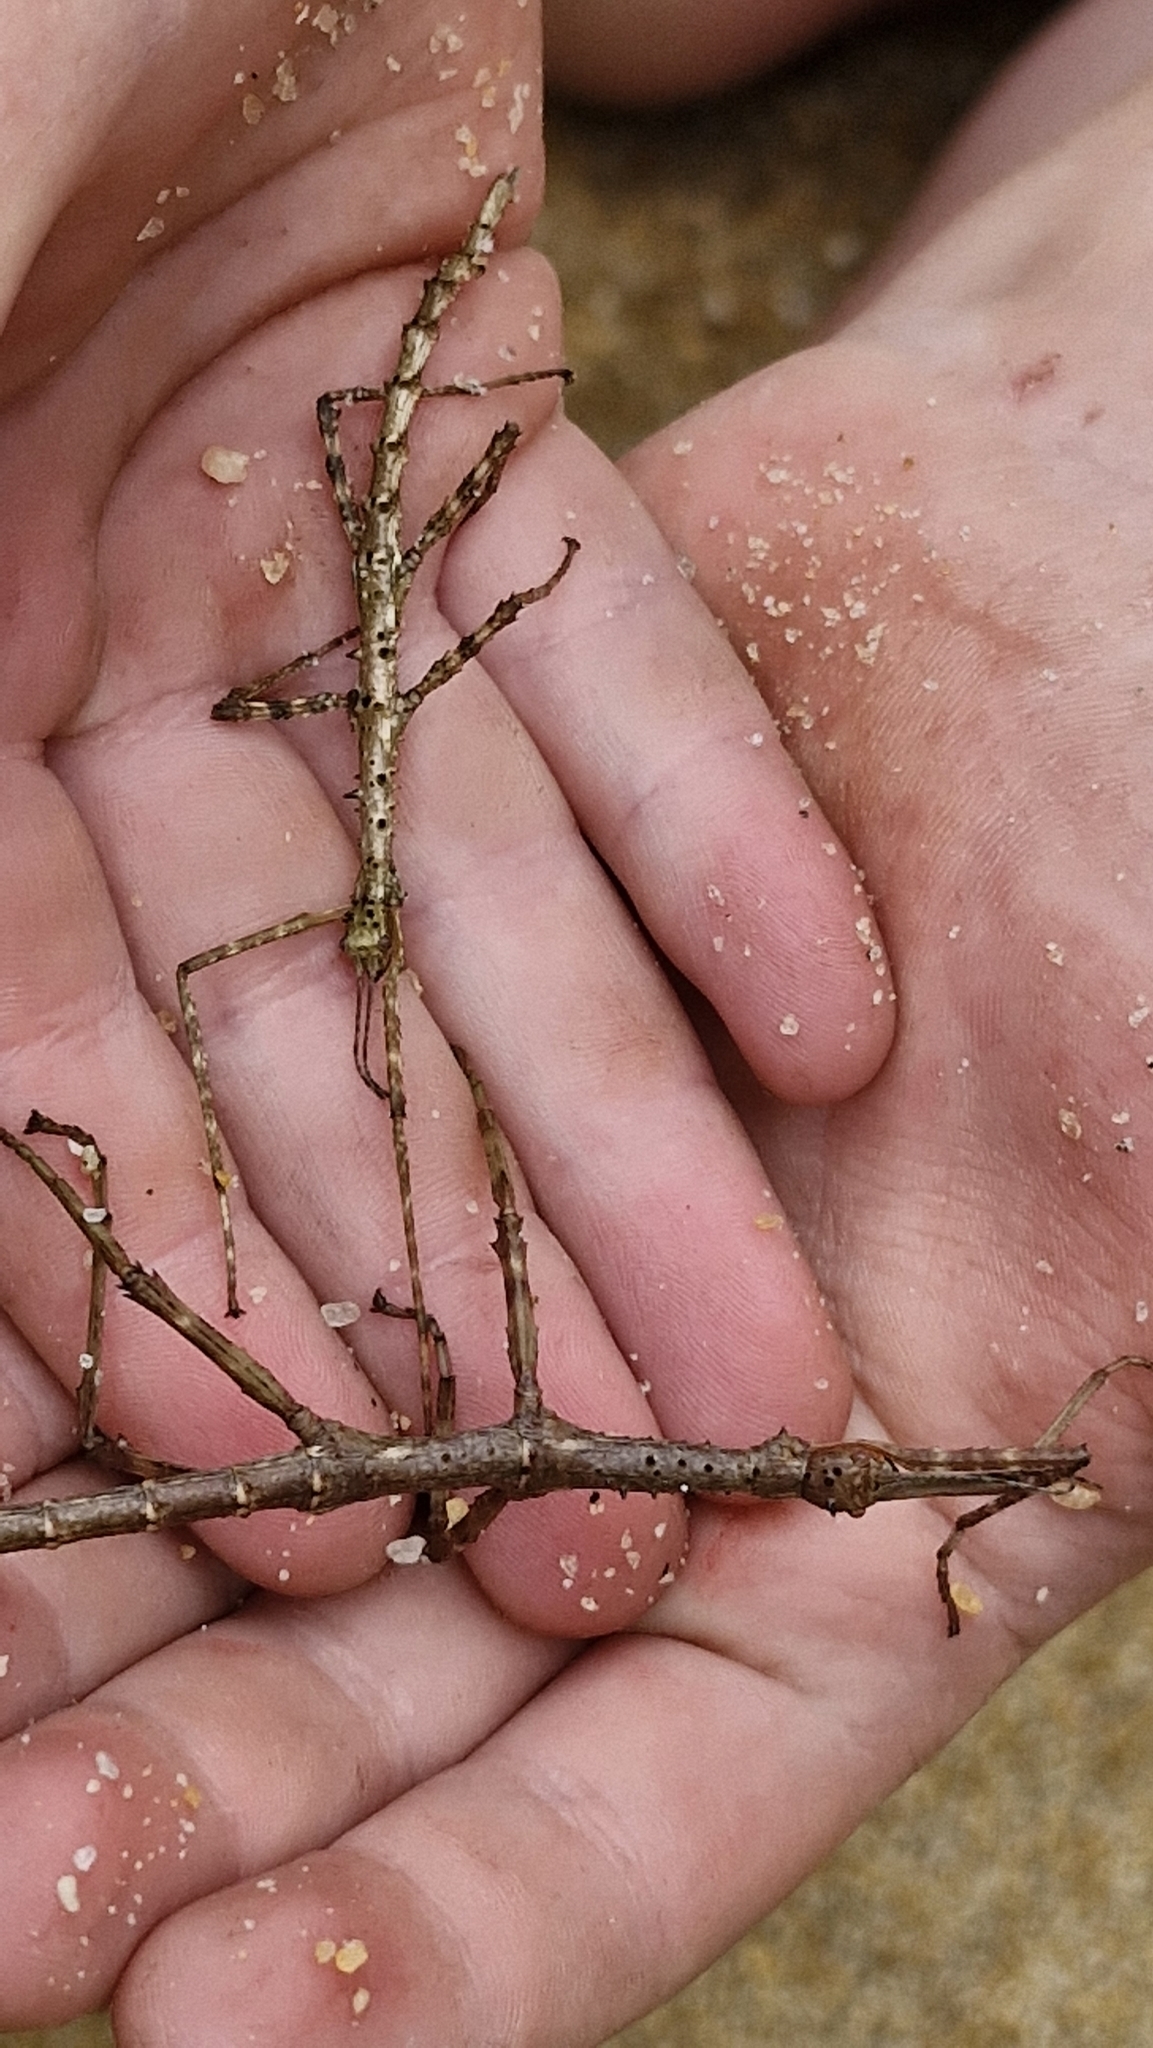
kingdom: Animalia
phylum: Arthropoda
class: Insecta
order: Phasmida
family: Phasmatidae
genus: Acanthoxyla
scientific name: Acanthoxyla prasina
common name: Black-spined stick insect
